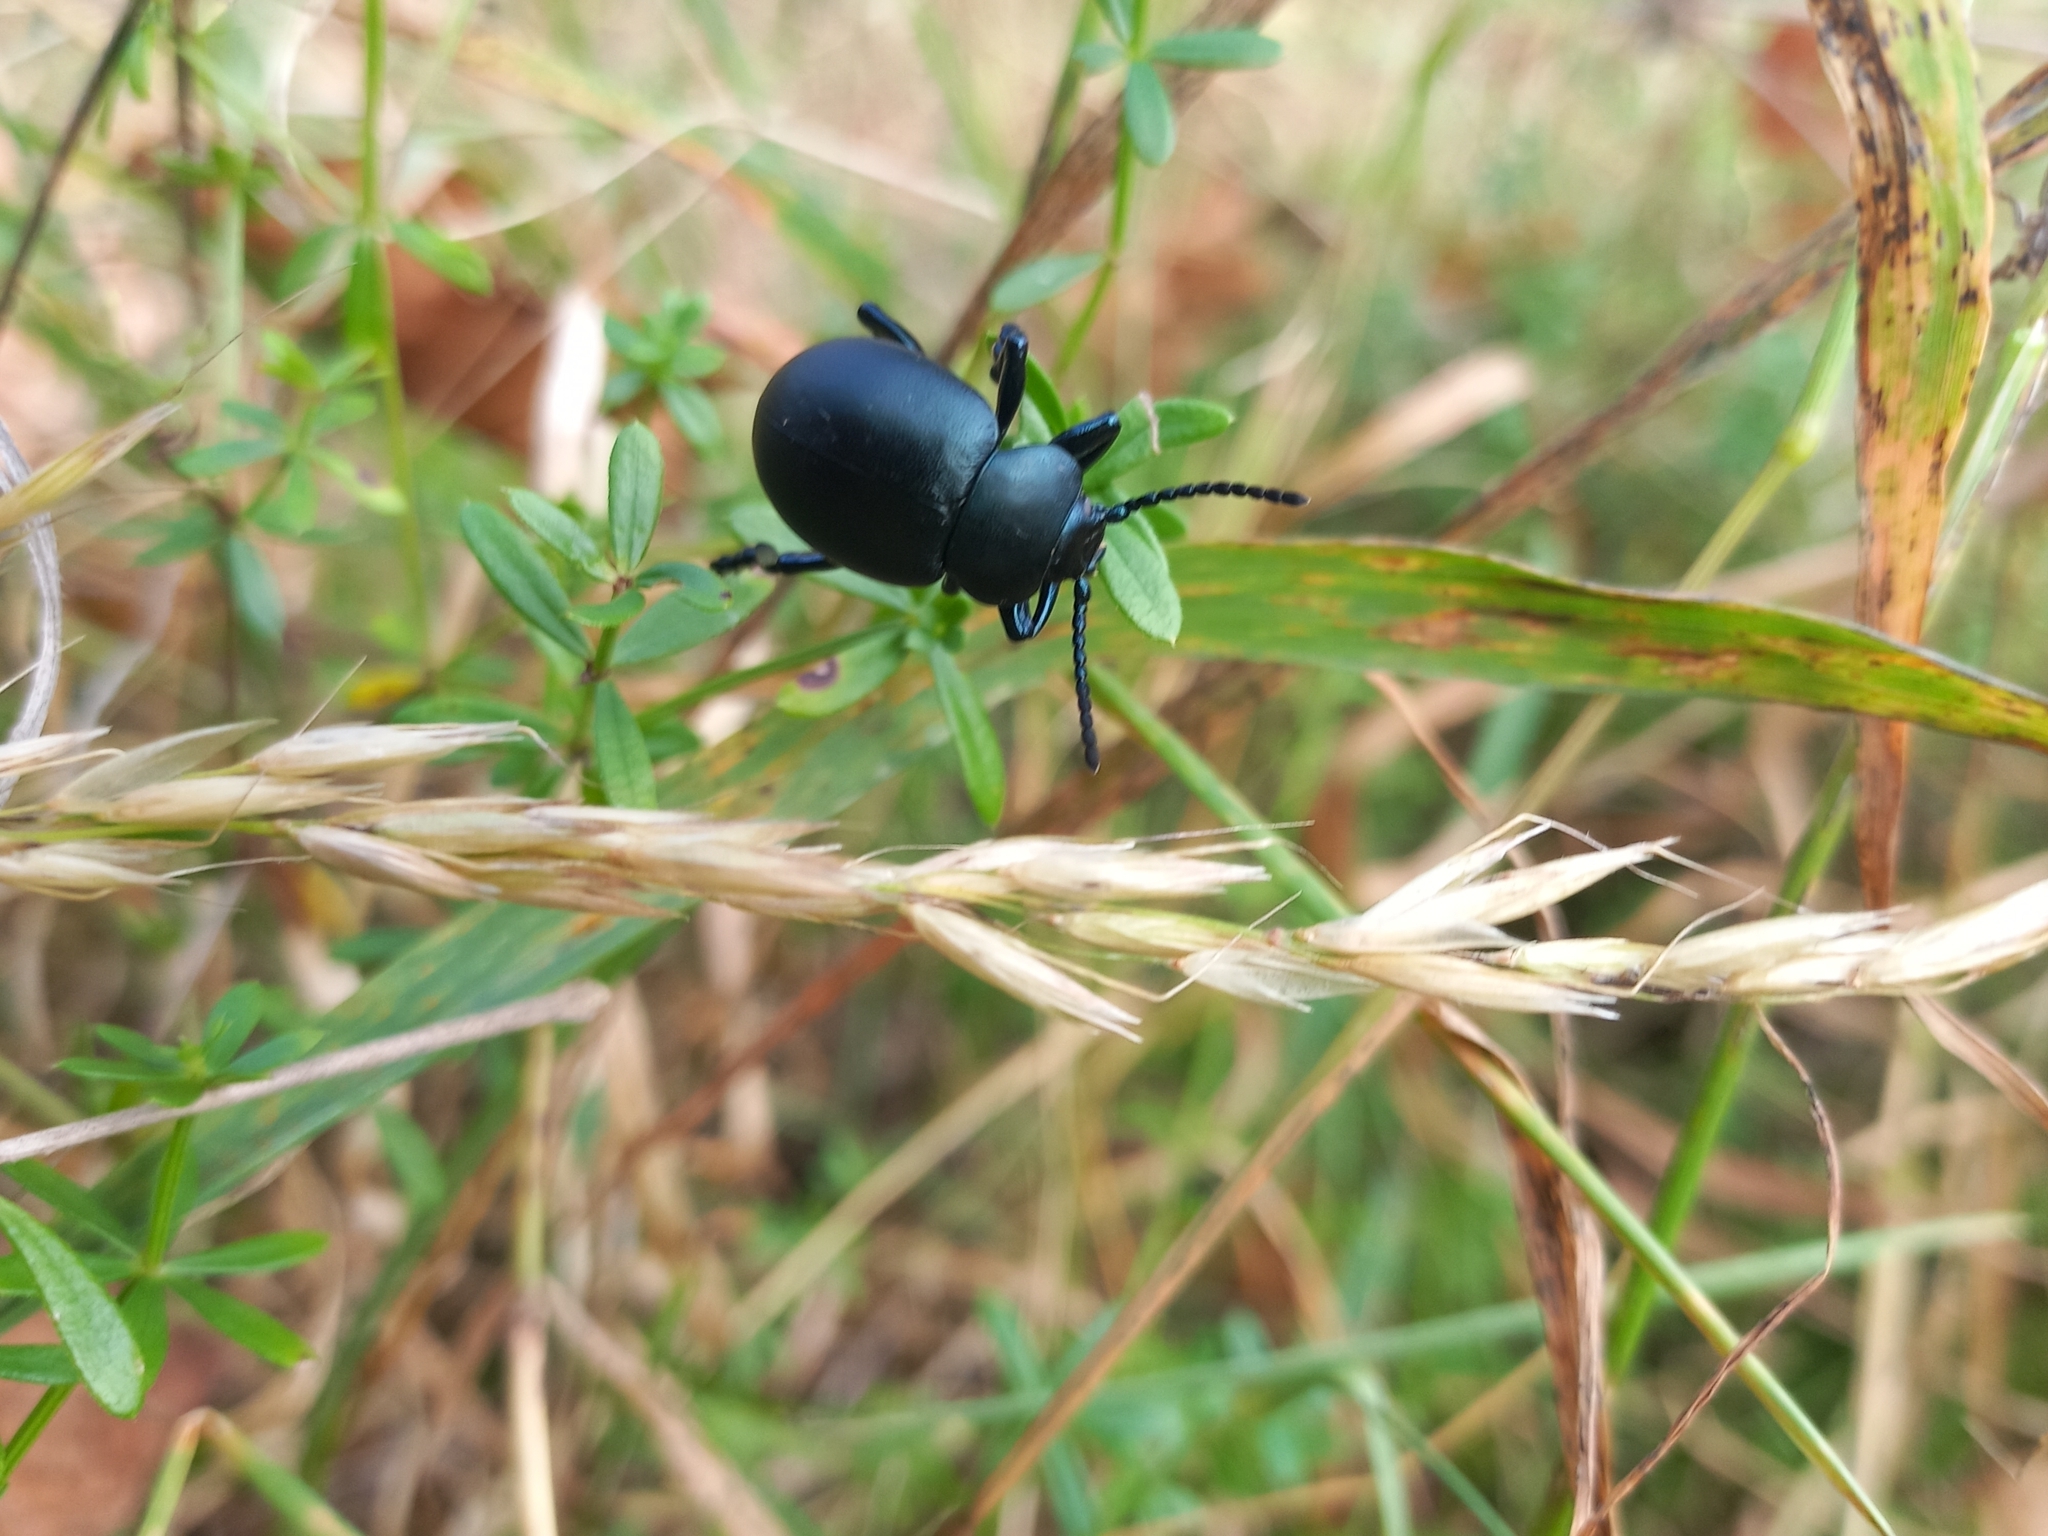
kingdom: Animalia
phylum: Arthropoda
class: Insecta
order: Coleoptera
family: Chrysomelidae
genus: Timarcha
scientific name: Timarcha tenebricosa
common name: Bloody-nosed beetle
